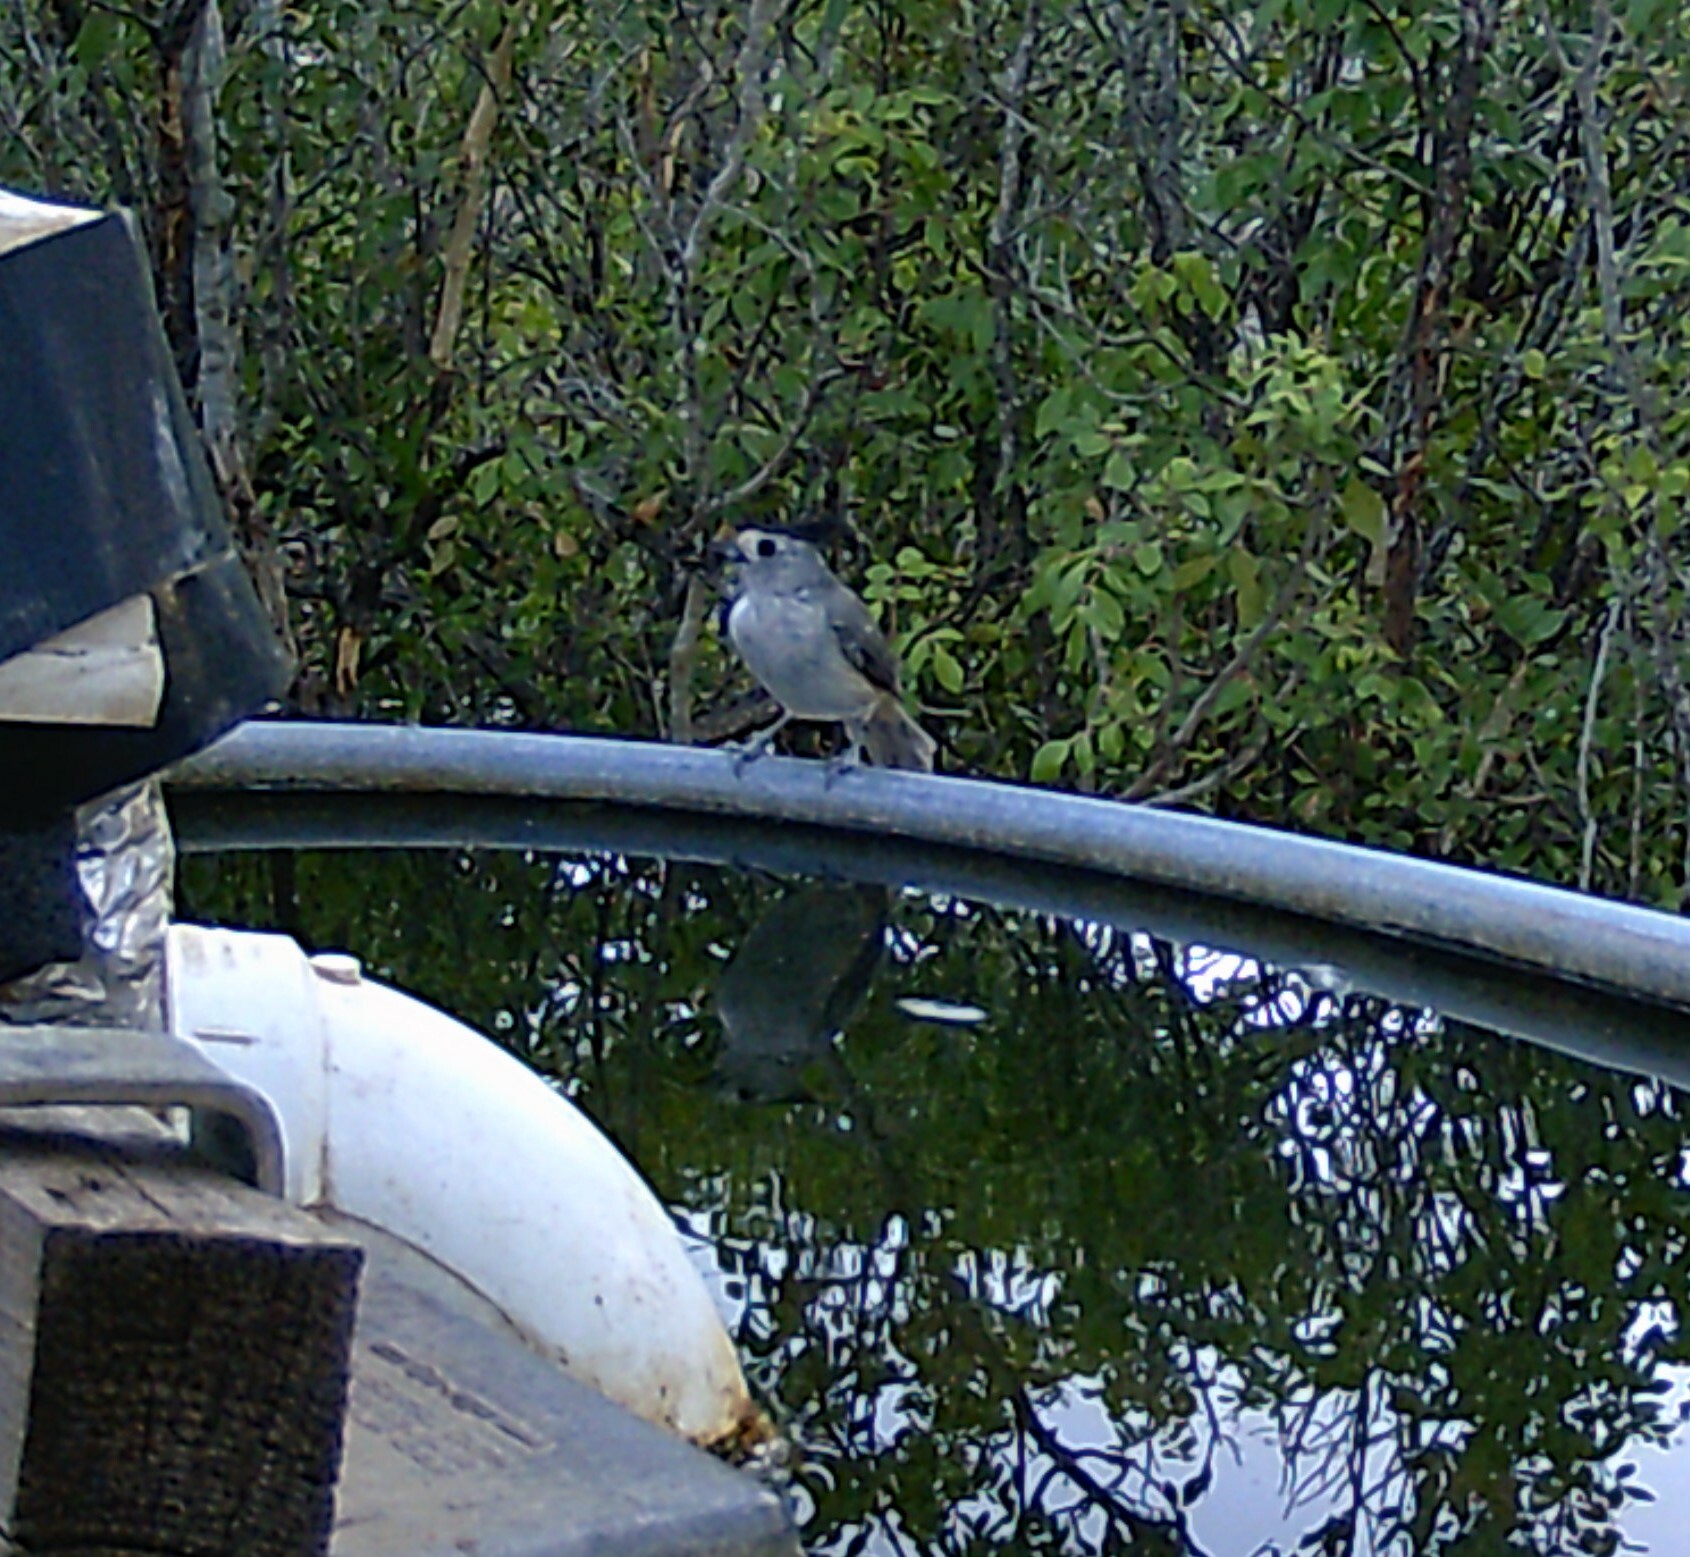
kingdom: Animalia
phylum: Chordata
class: Aves
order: Passeriformes
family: Paridae
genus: Baeolophus
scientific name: Baeolophus atricristatus
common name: Black-crested titmouse
